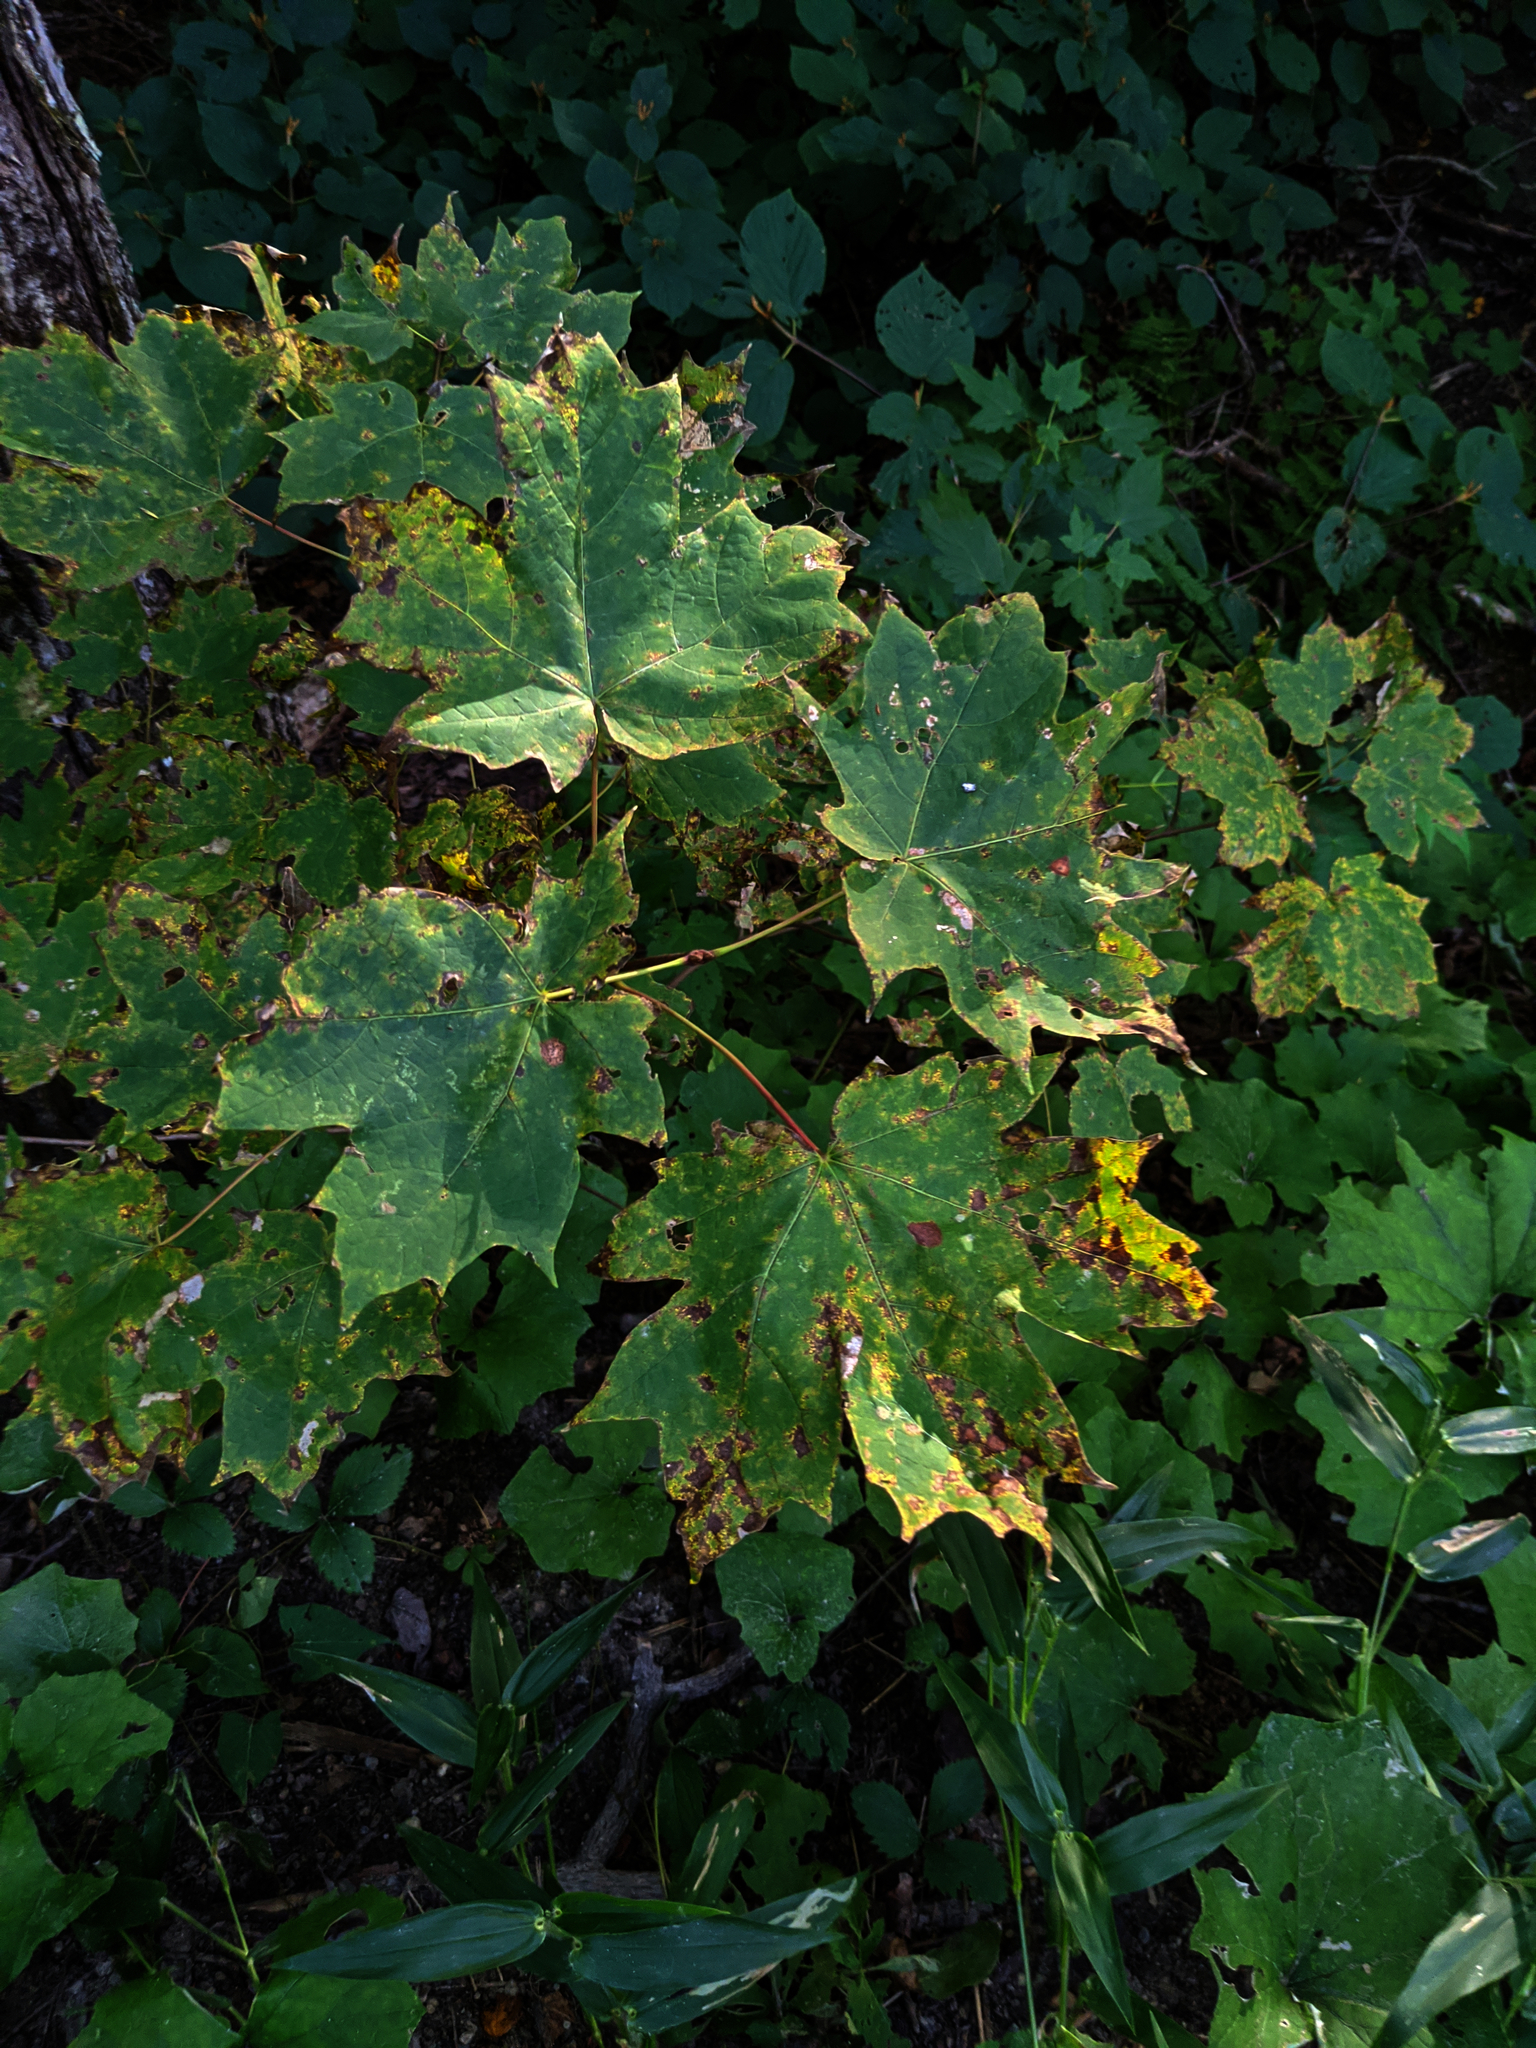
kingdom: Plantae
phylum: Tracheophyta
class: Magnoliopsida
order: Sapindales
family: Sapindaceae
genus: Acer
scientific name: Acer saccharum
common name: Sugar maple
